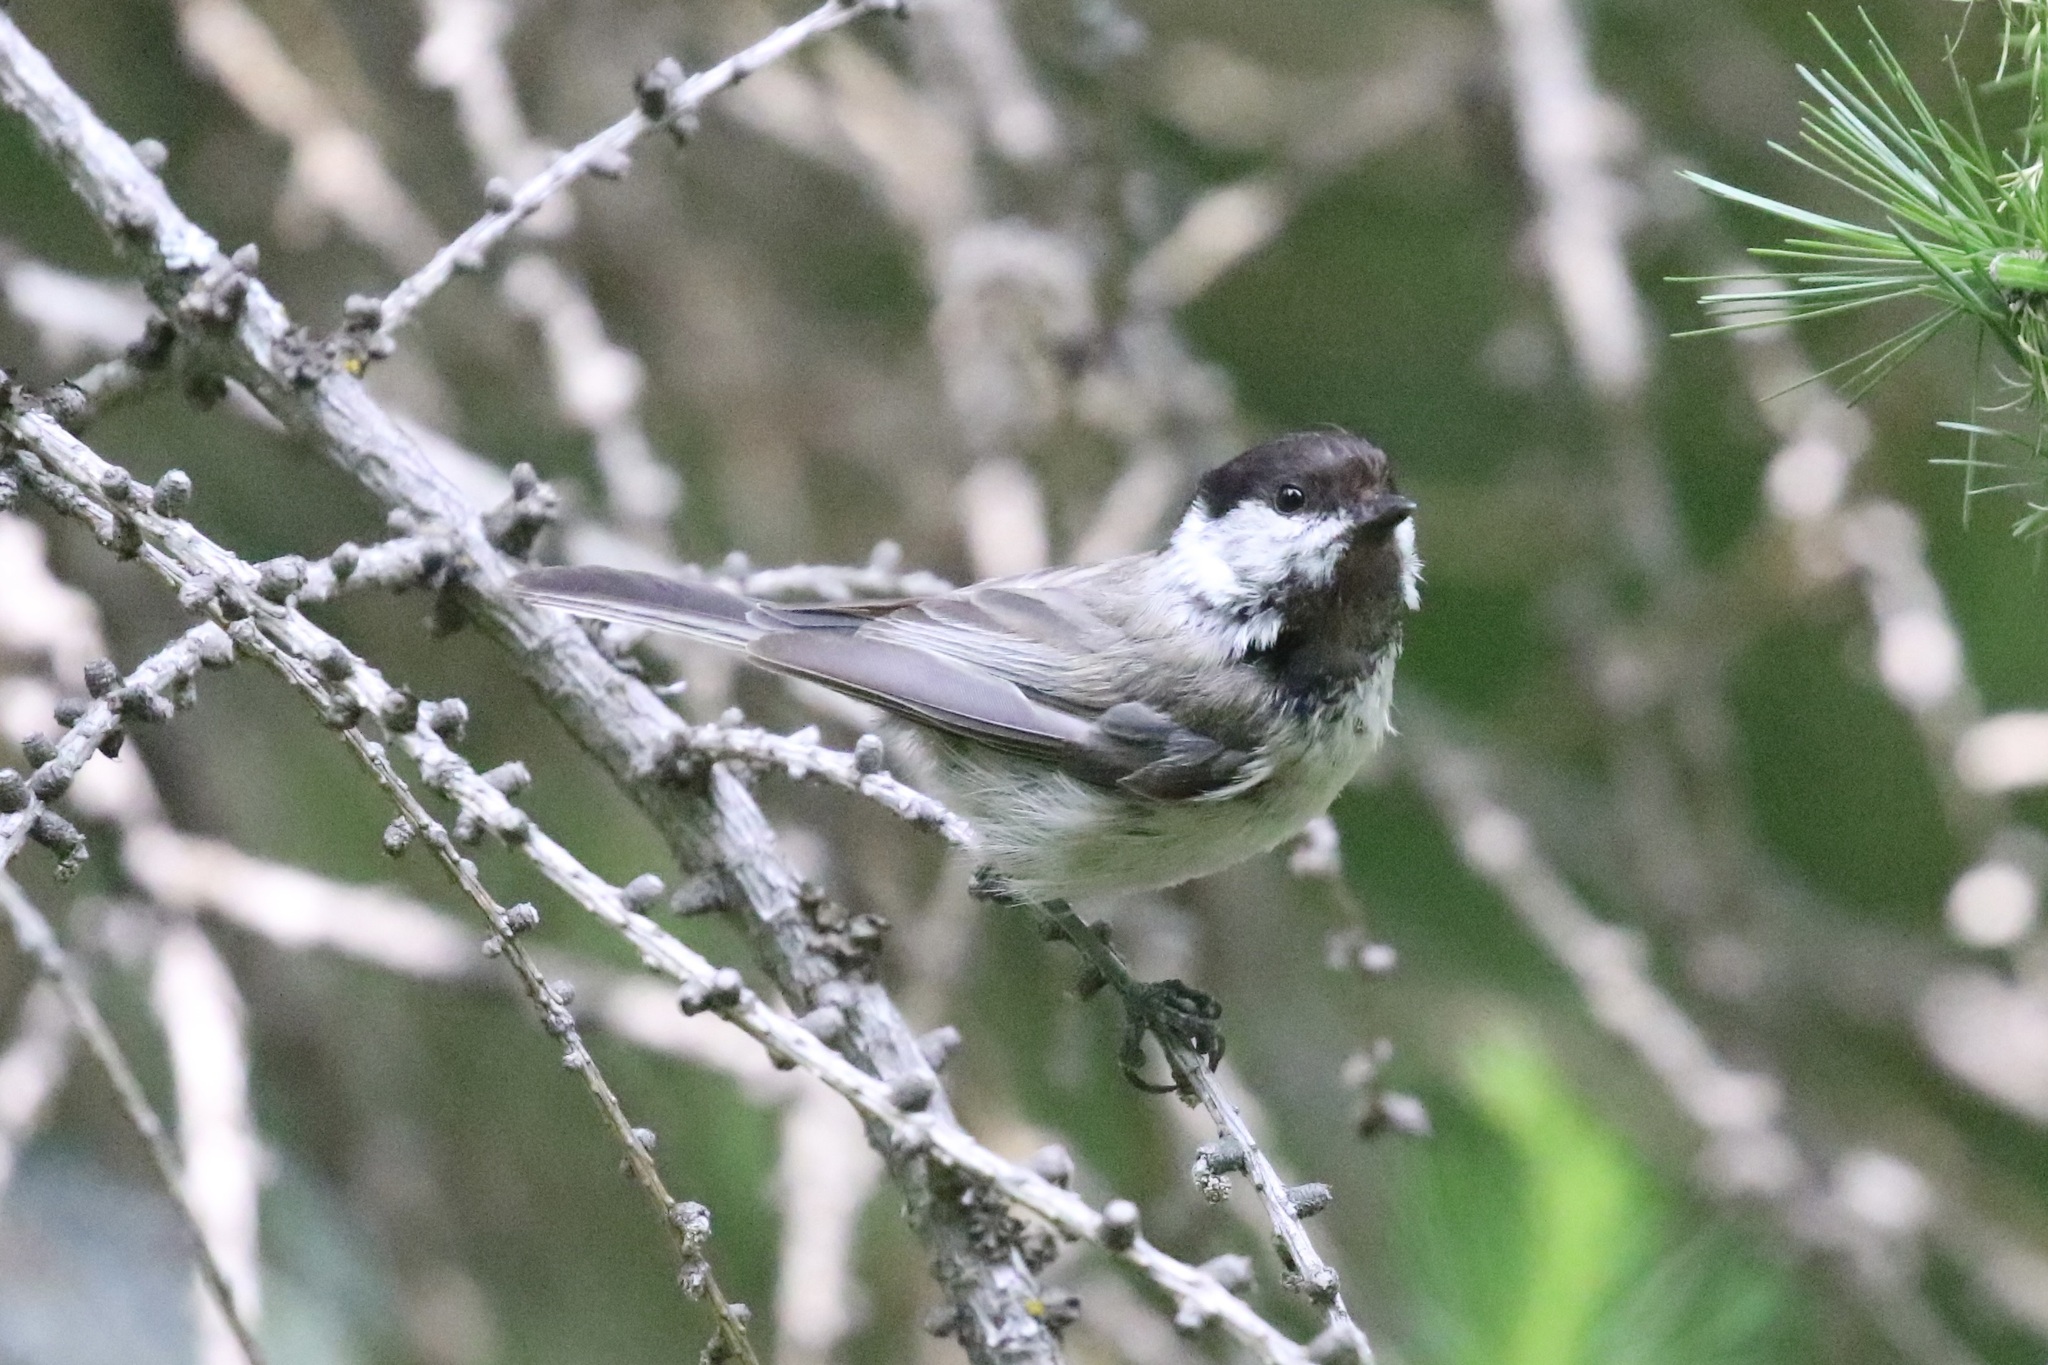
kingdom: Animalia
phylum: Chordata
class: Aves
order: Passeriformes
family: Paridae
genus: Poecile
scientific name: Poecile montanus
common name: Willow tit
